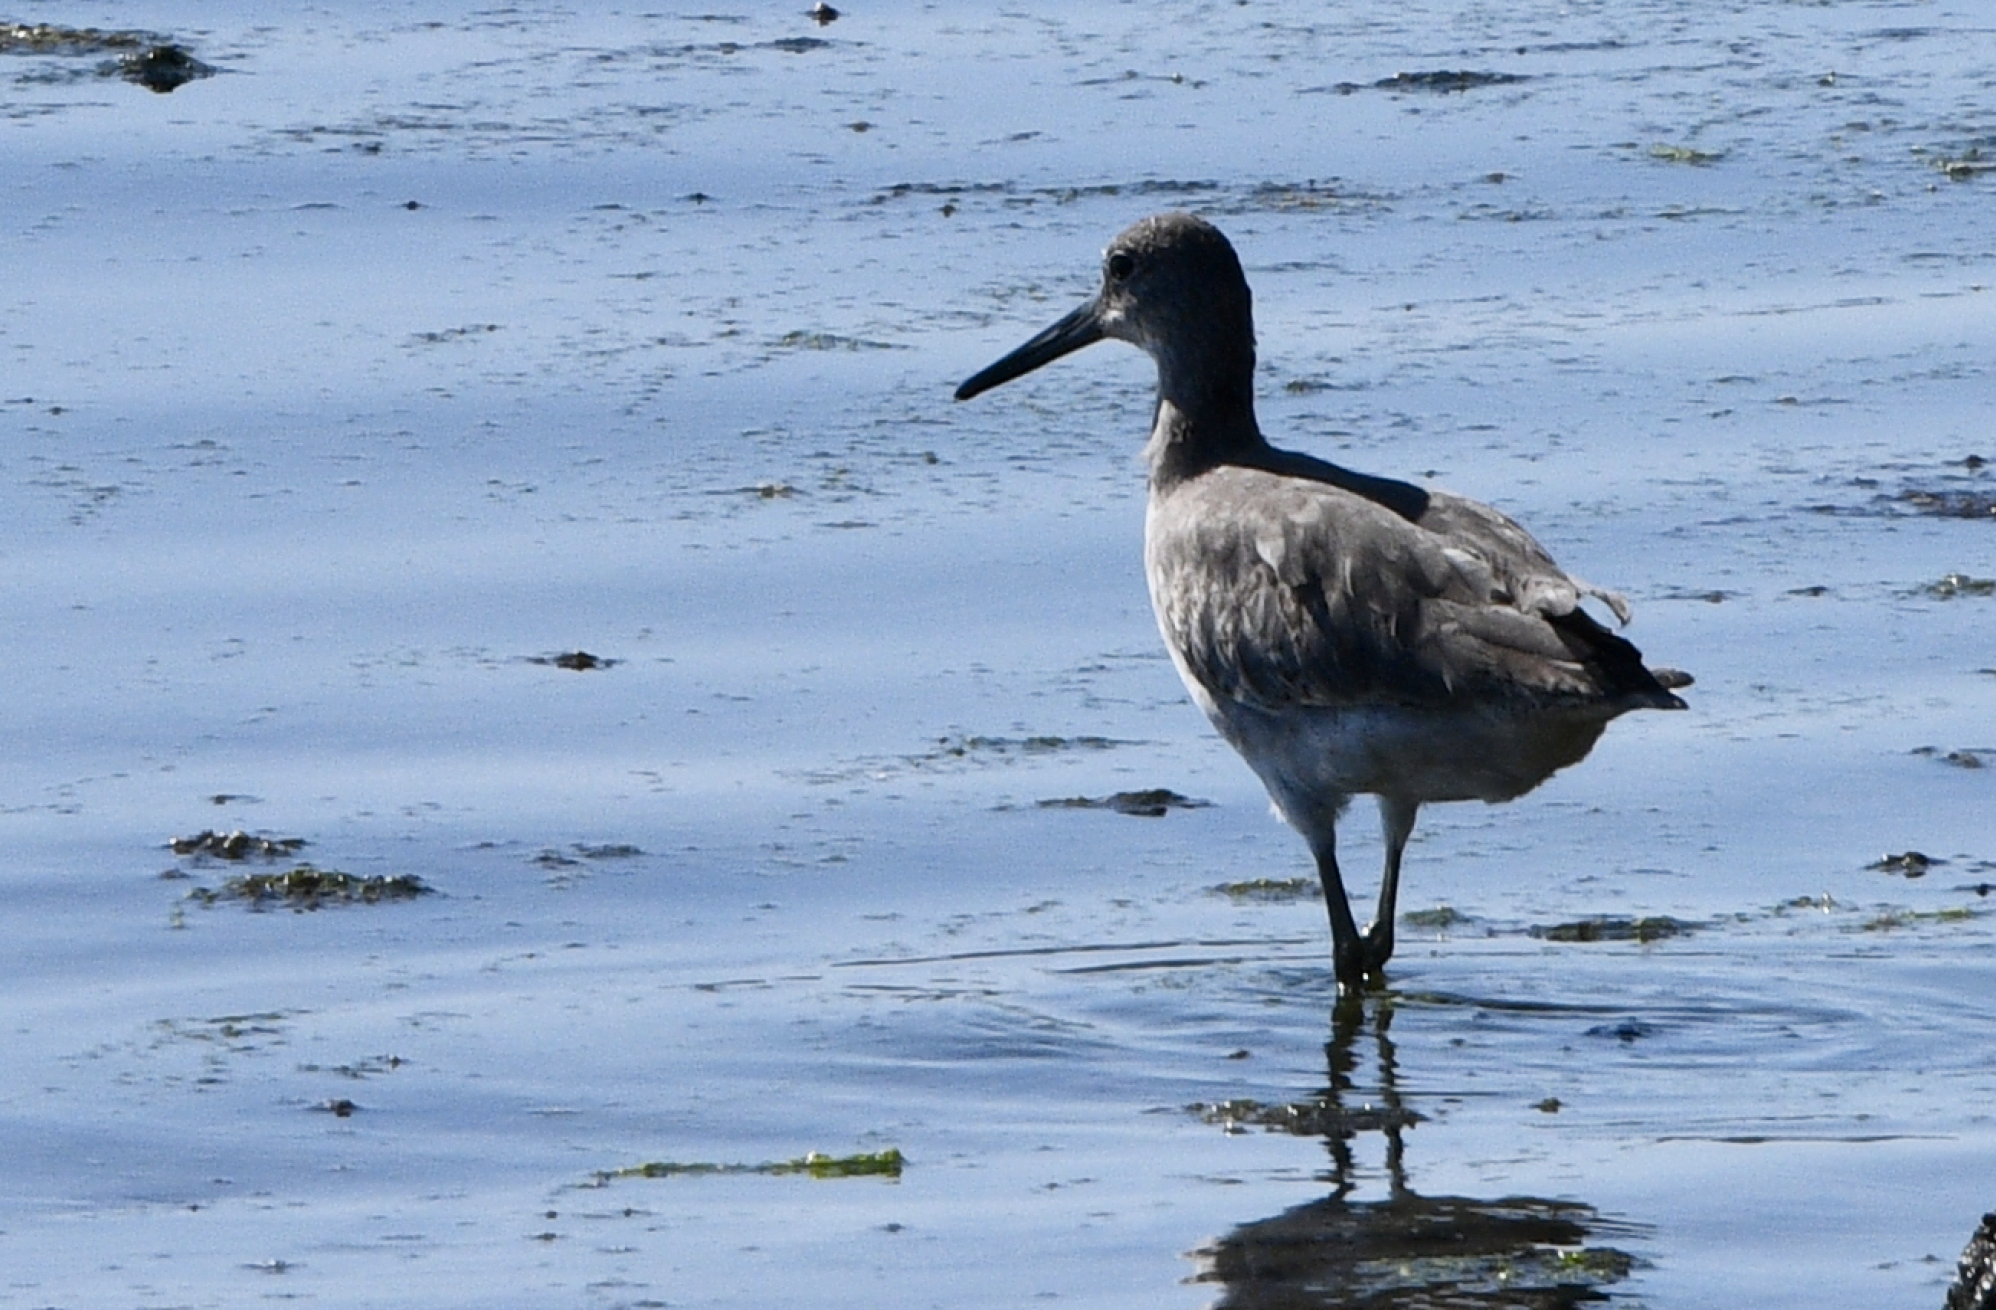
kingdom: Animalia
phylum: Chordata
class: Aves
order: Charadriiformes
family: Scolopacidae
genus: Tringa
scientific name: Tringa semipalmata
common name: Willet
